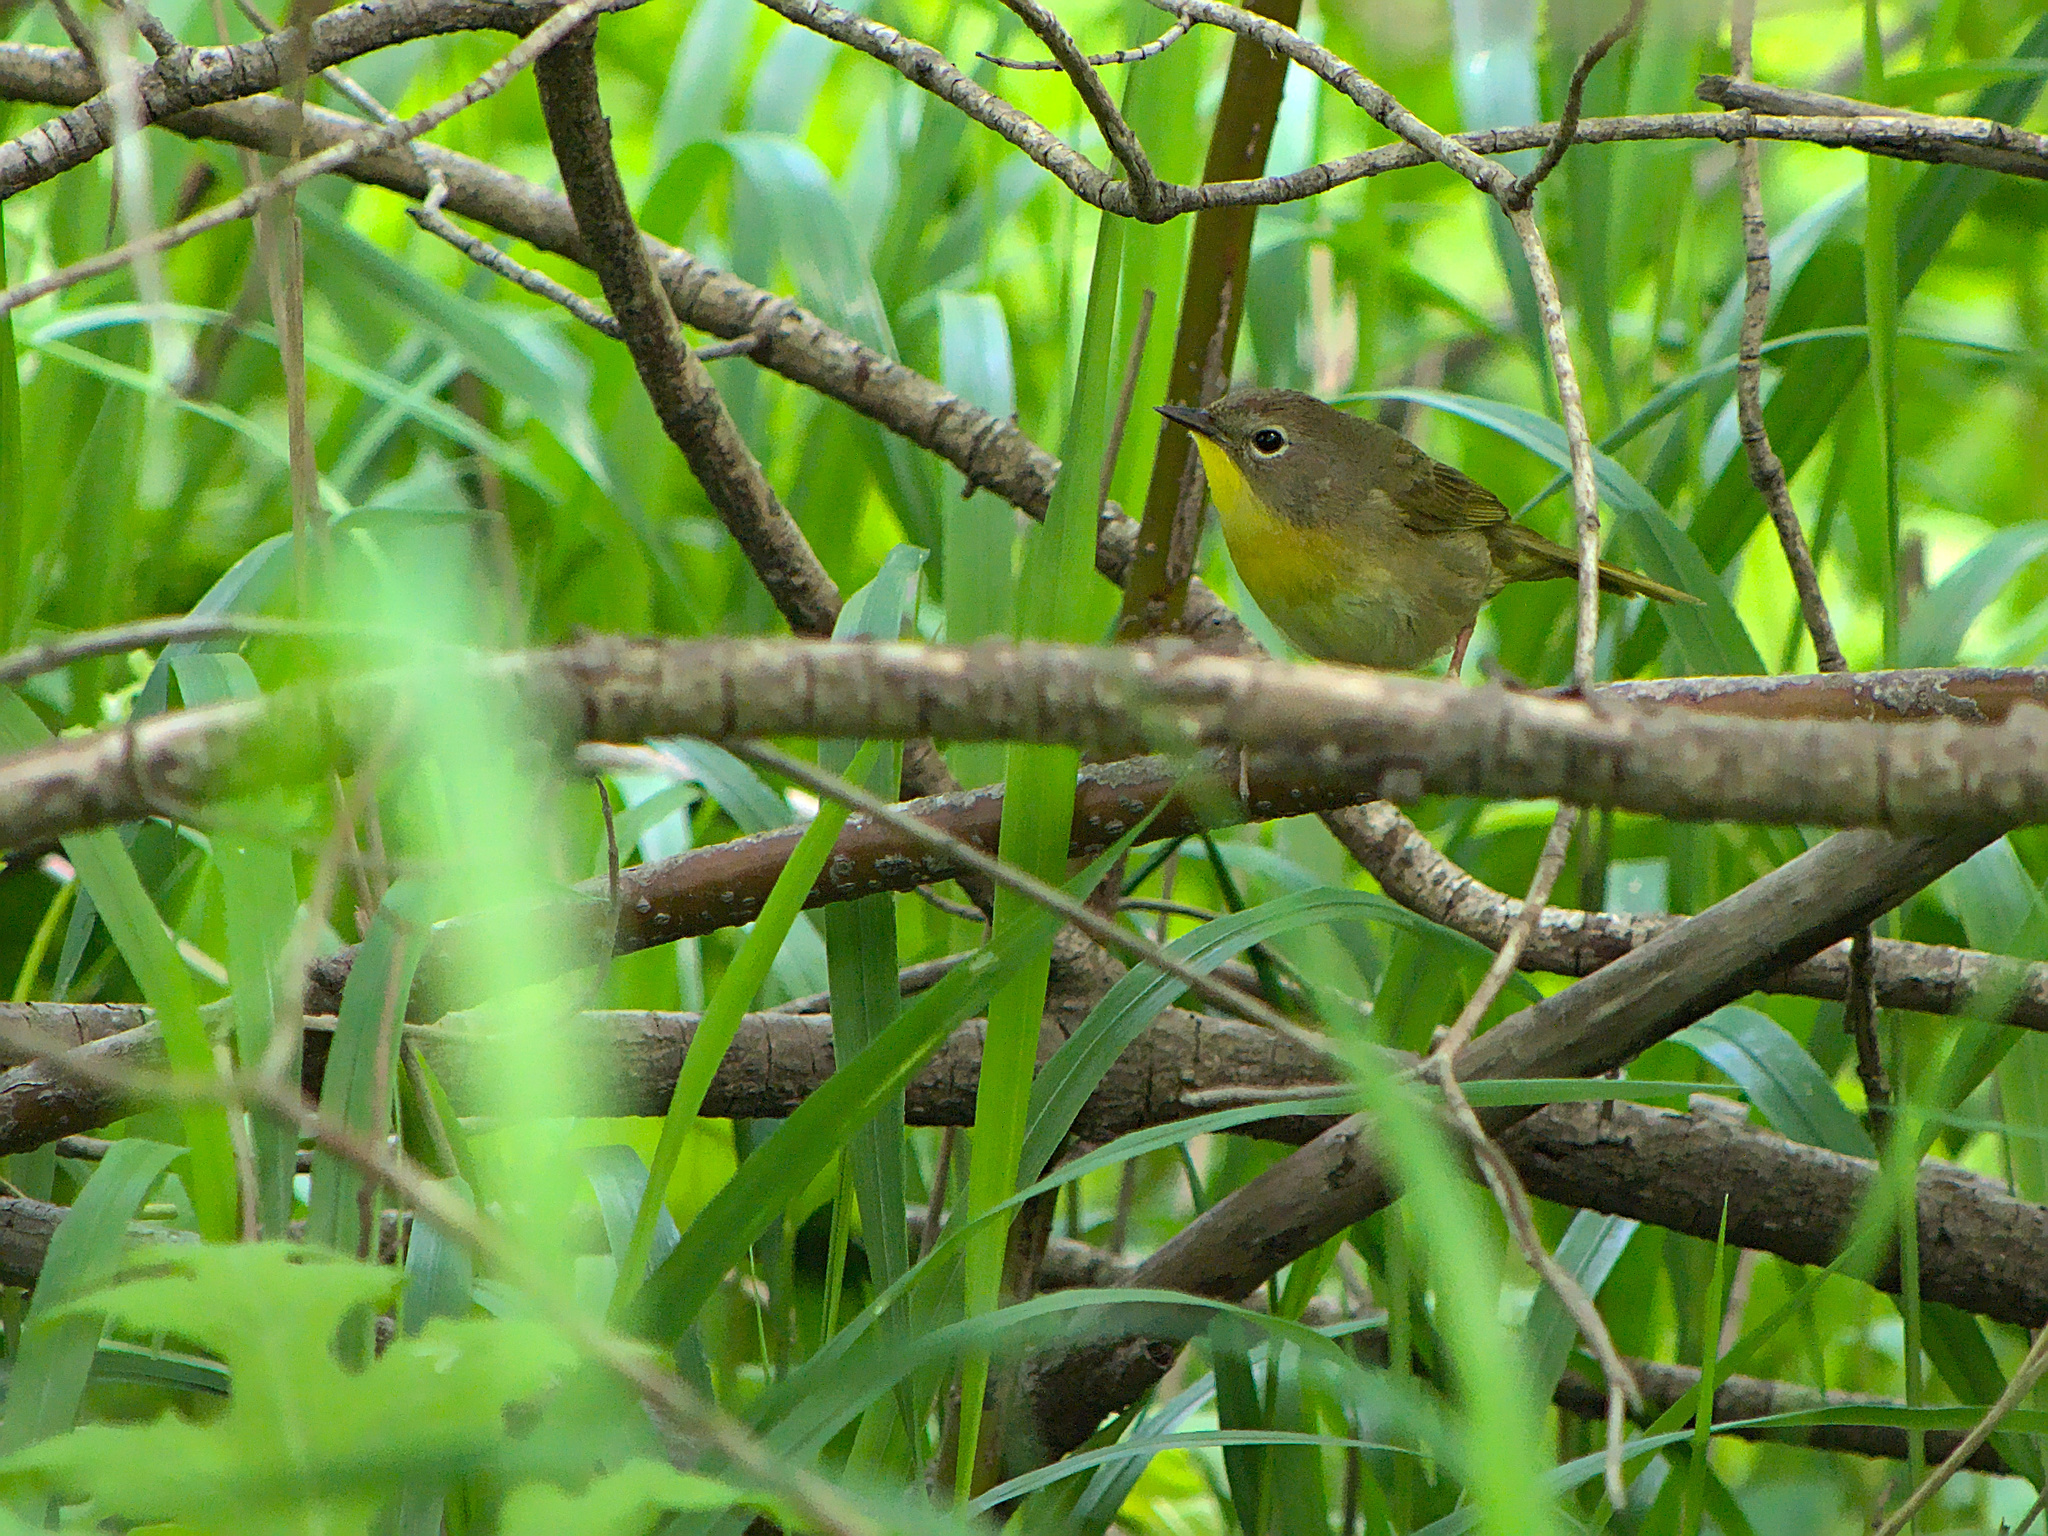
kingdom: Animalia
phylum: Chordata
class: Aves
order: Passeriformes
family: Parulidae
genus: Geothlypis
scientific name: Geothlypis trichas
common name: Common yellowthroat
